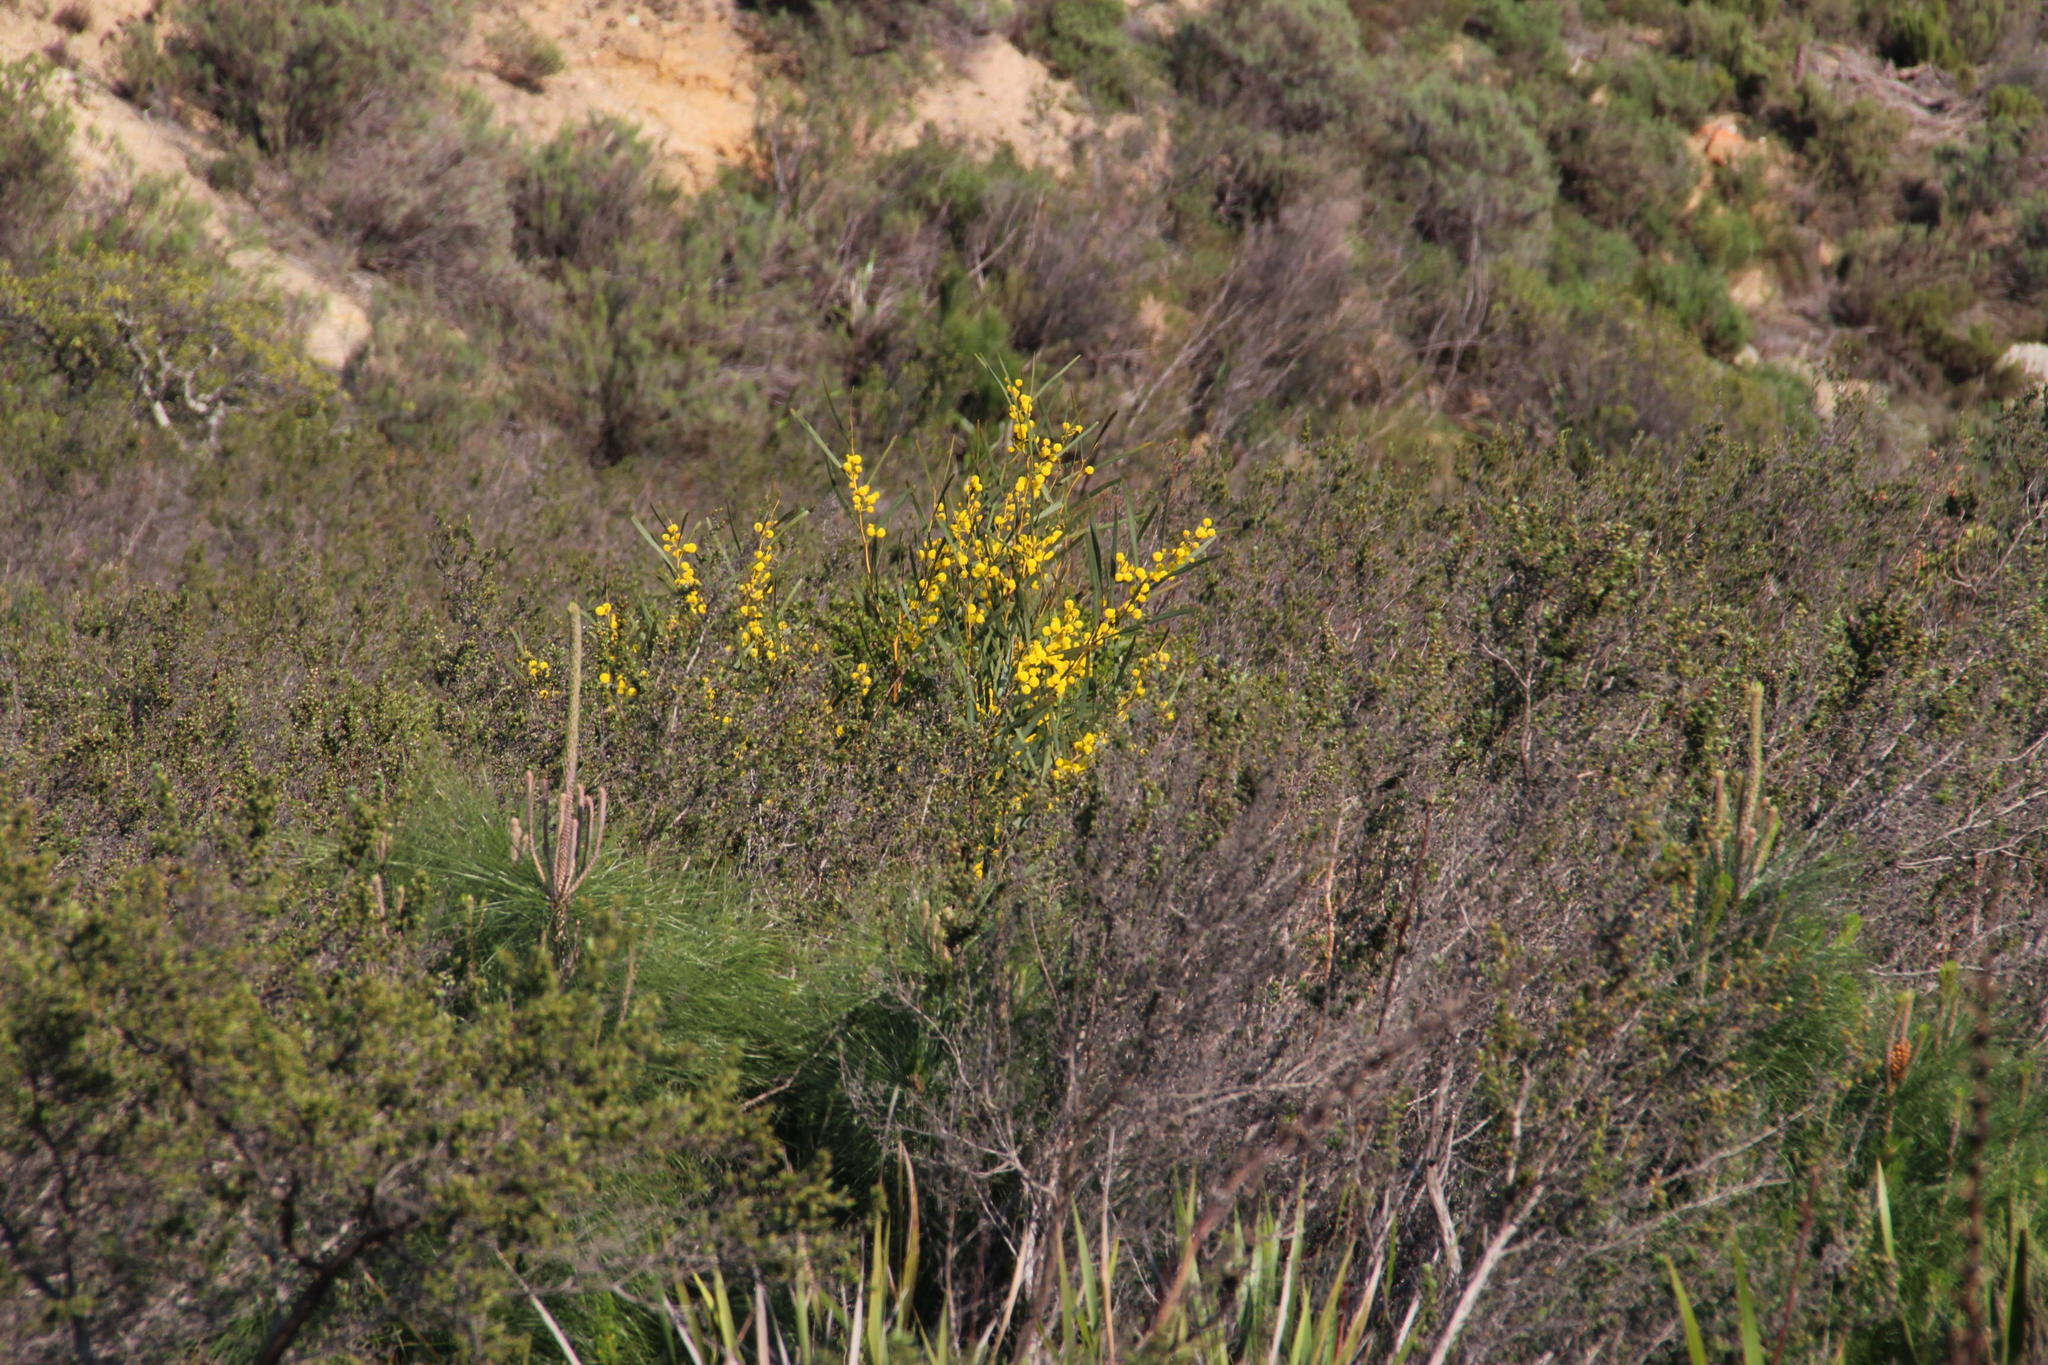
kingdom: Plantae
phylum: Tracheophyta
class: Magnoliopsida
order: Fabales
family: Fabaceae
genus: Acacia
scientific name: Acacia saligna
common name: Orange wattle
